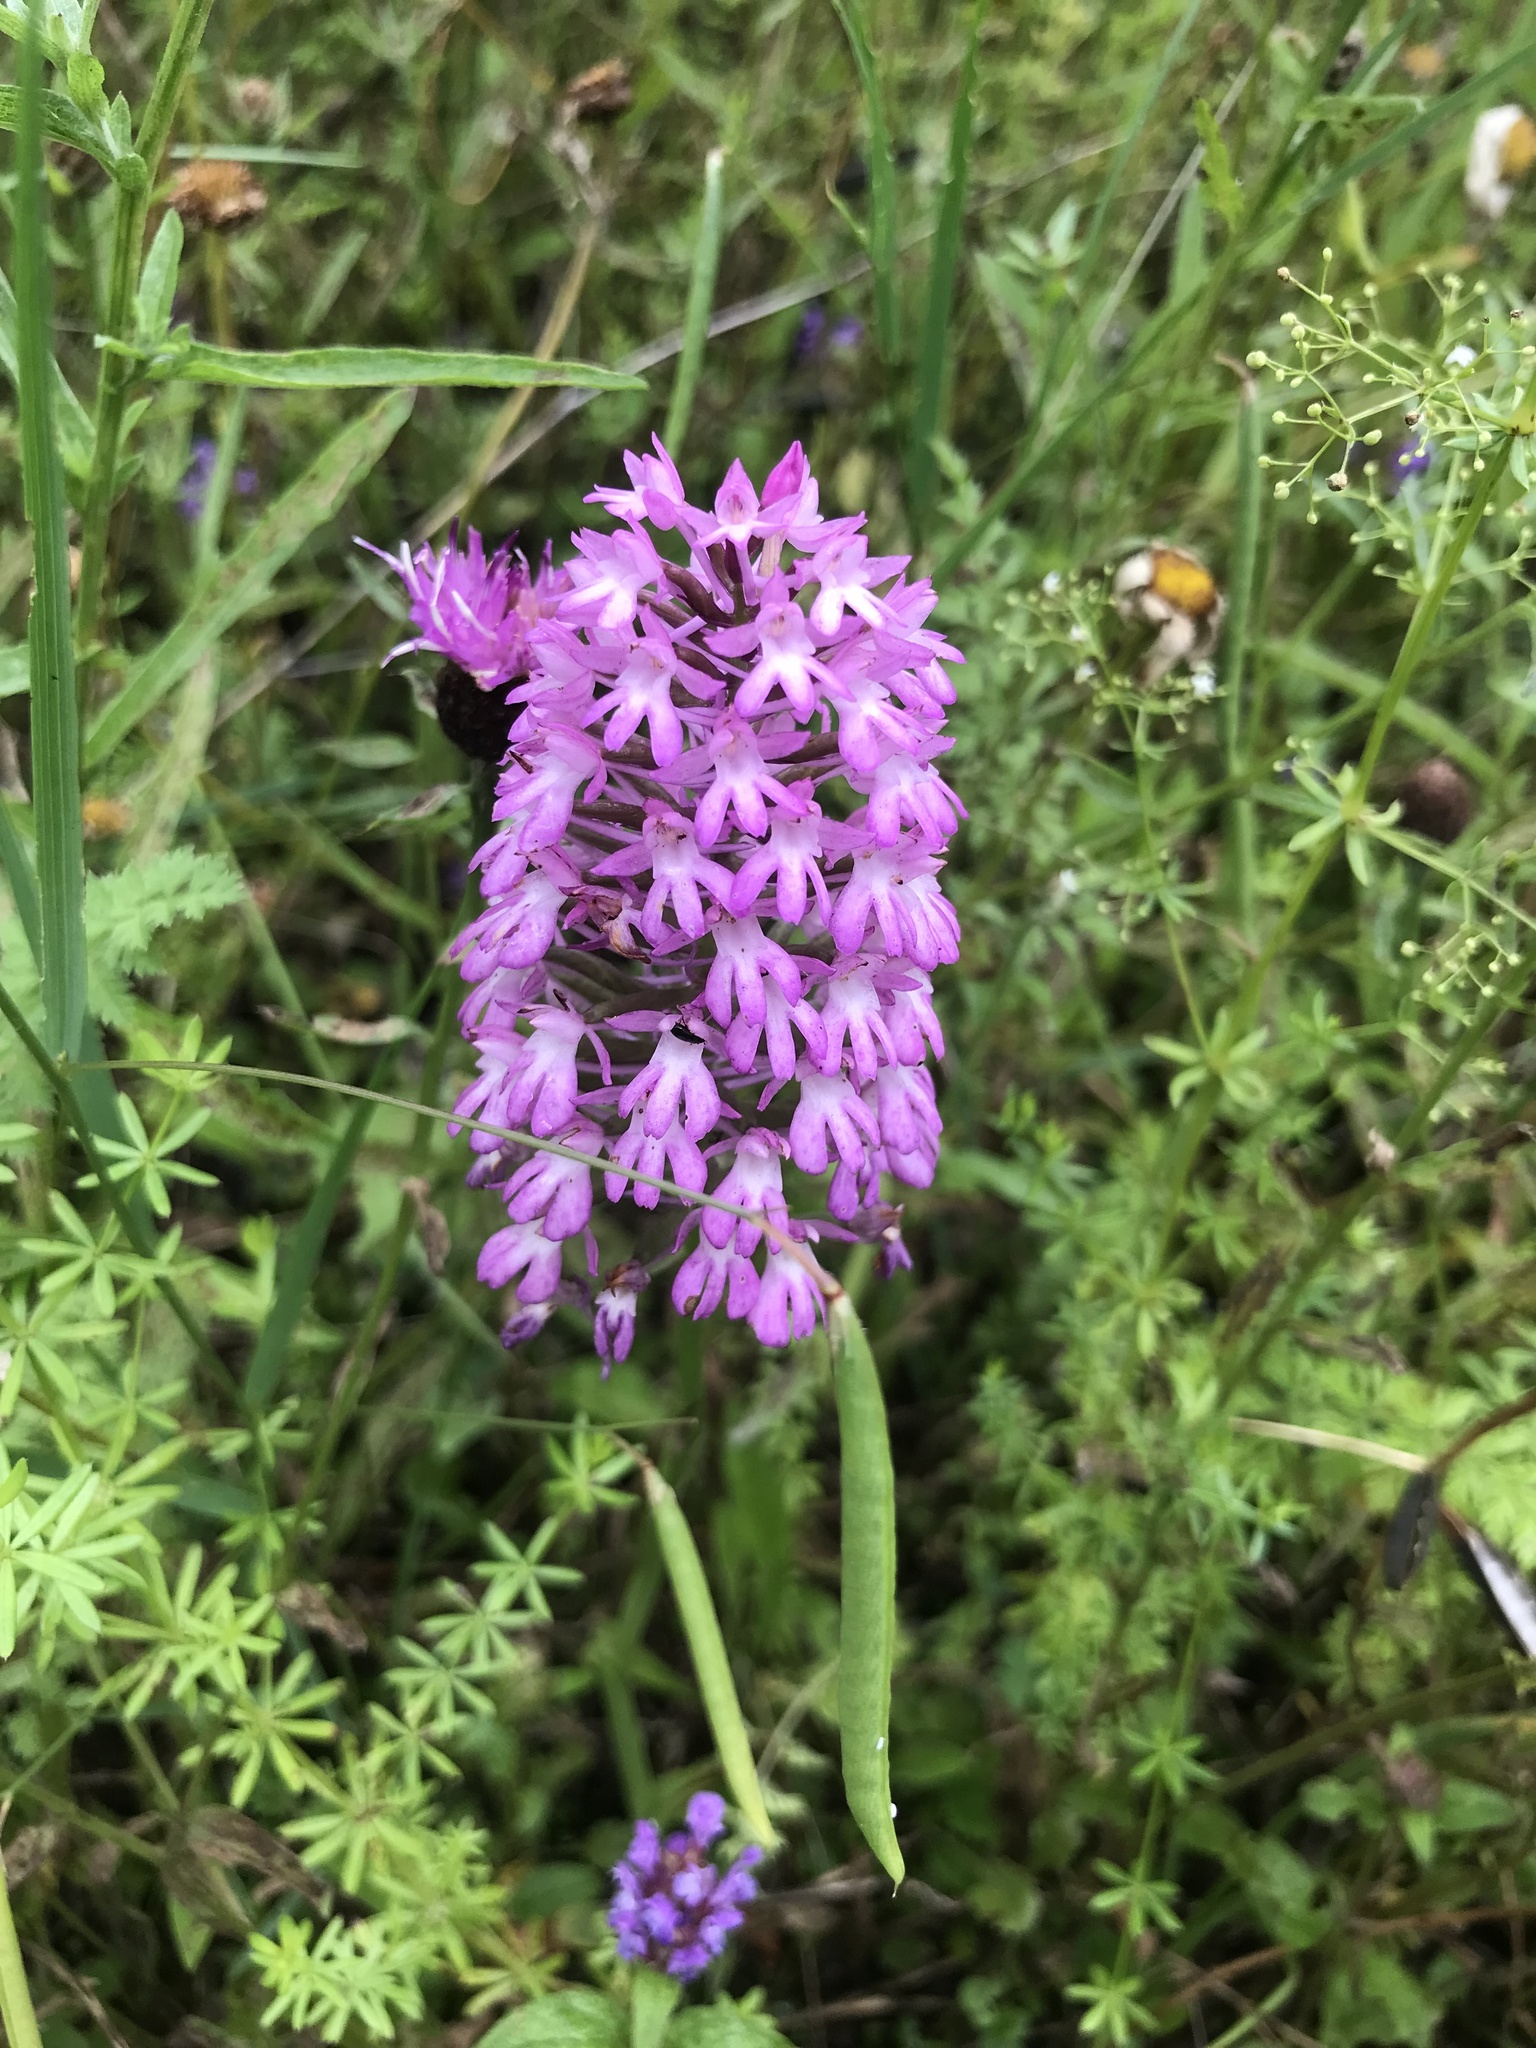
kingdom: Plantae
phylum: Tracheophyta
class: Liliopsida
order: Asparagales
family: Orchidaceae
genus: Anacamptis
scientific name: Anacamptis pyramidalis
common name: Pyramidal orchid
